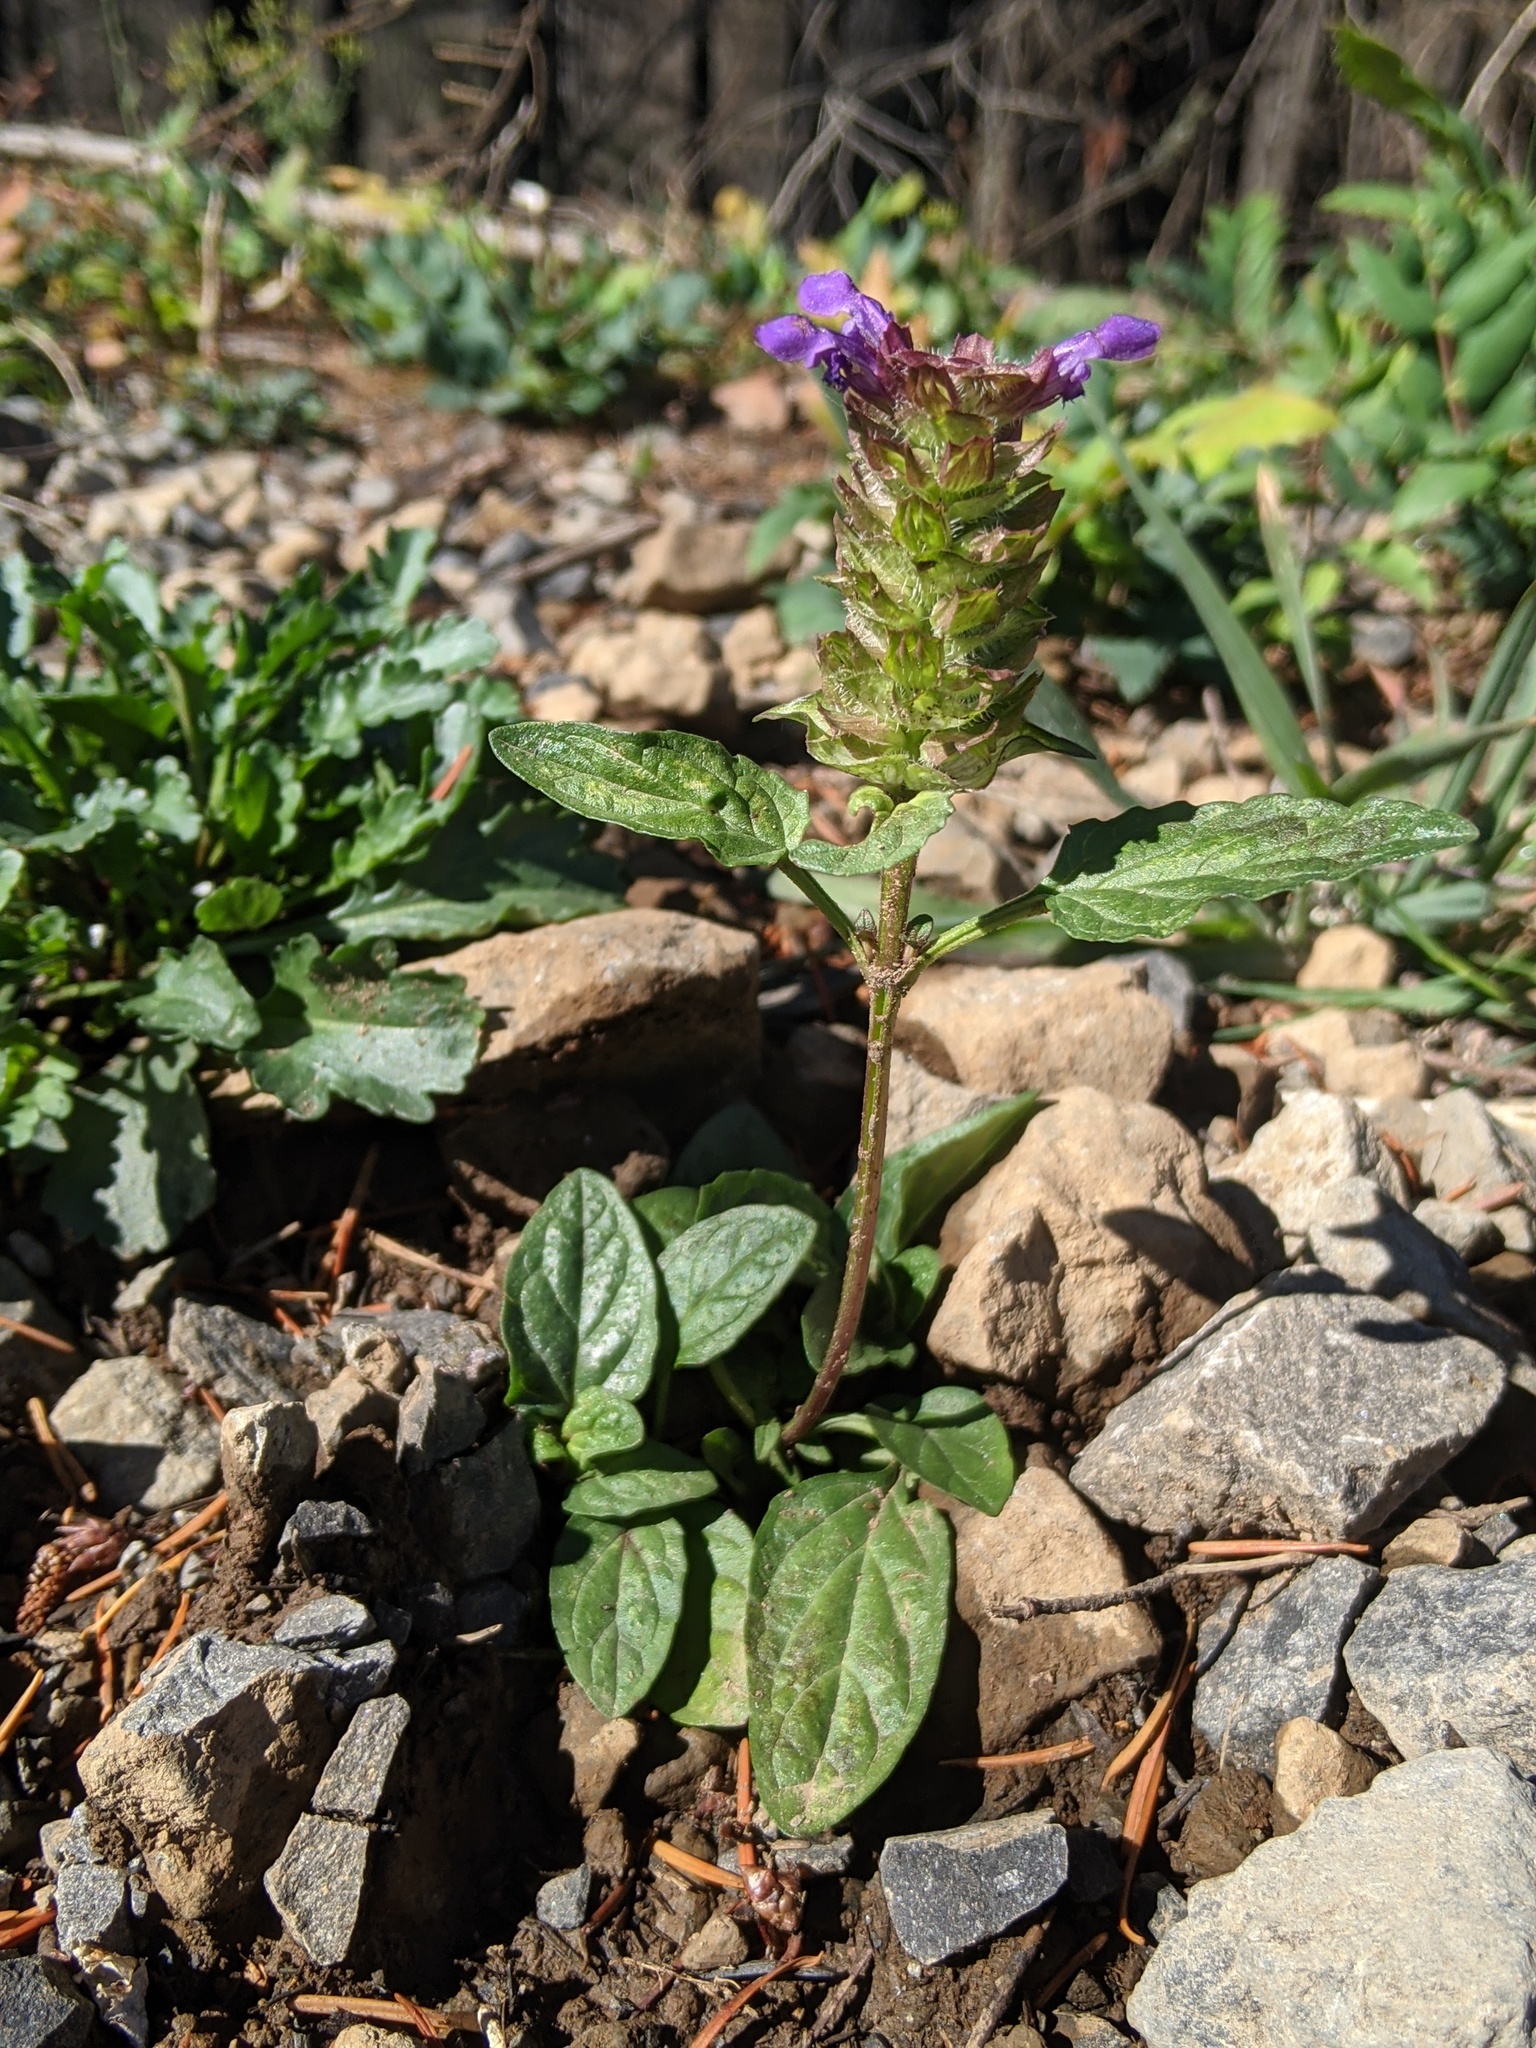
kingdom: Plantae
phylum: Tracheophyta
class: Magnoliopsida
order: Lamiales
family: Lamiaceae
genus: Prunella
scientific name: Prunella vulgaris
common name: Heal-all
